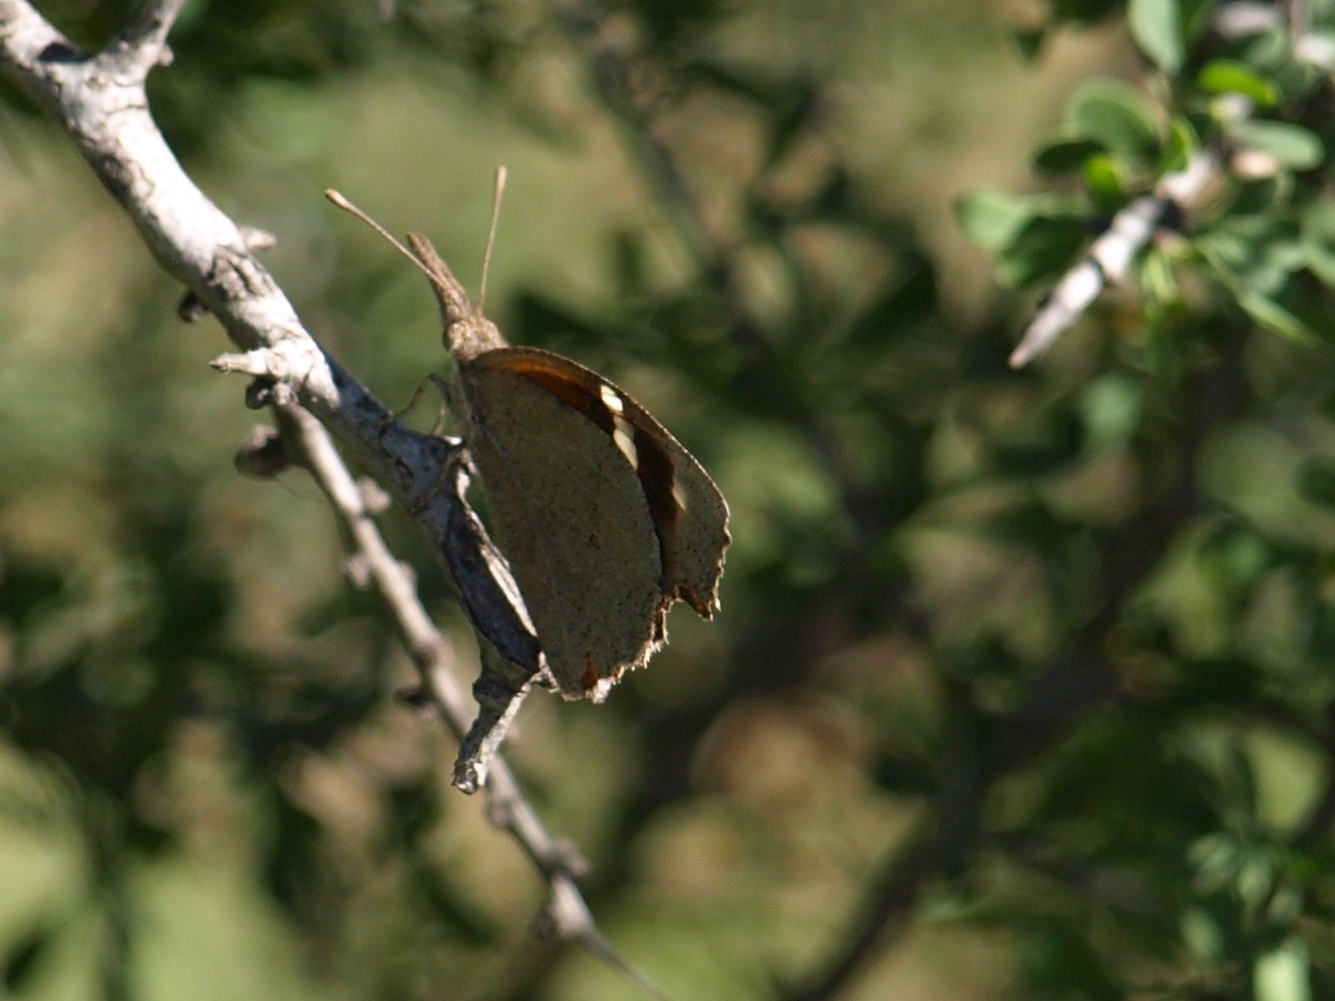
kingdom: Animalia
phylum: Arthropoda
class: Insecta
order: Lepidoptera
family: Nymphalidae
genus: Libytheana
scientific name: Libytheana carinenta
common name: American snout
